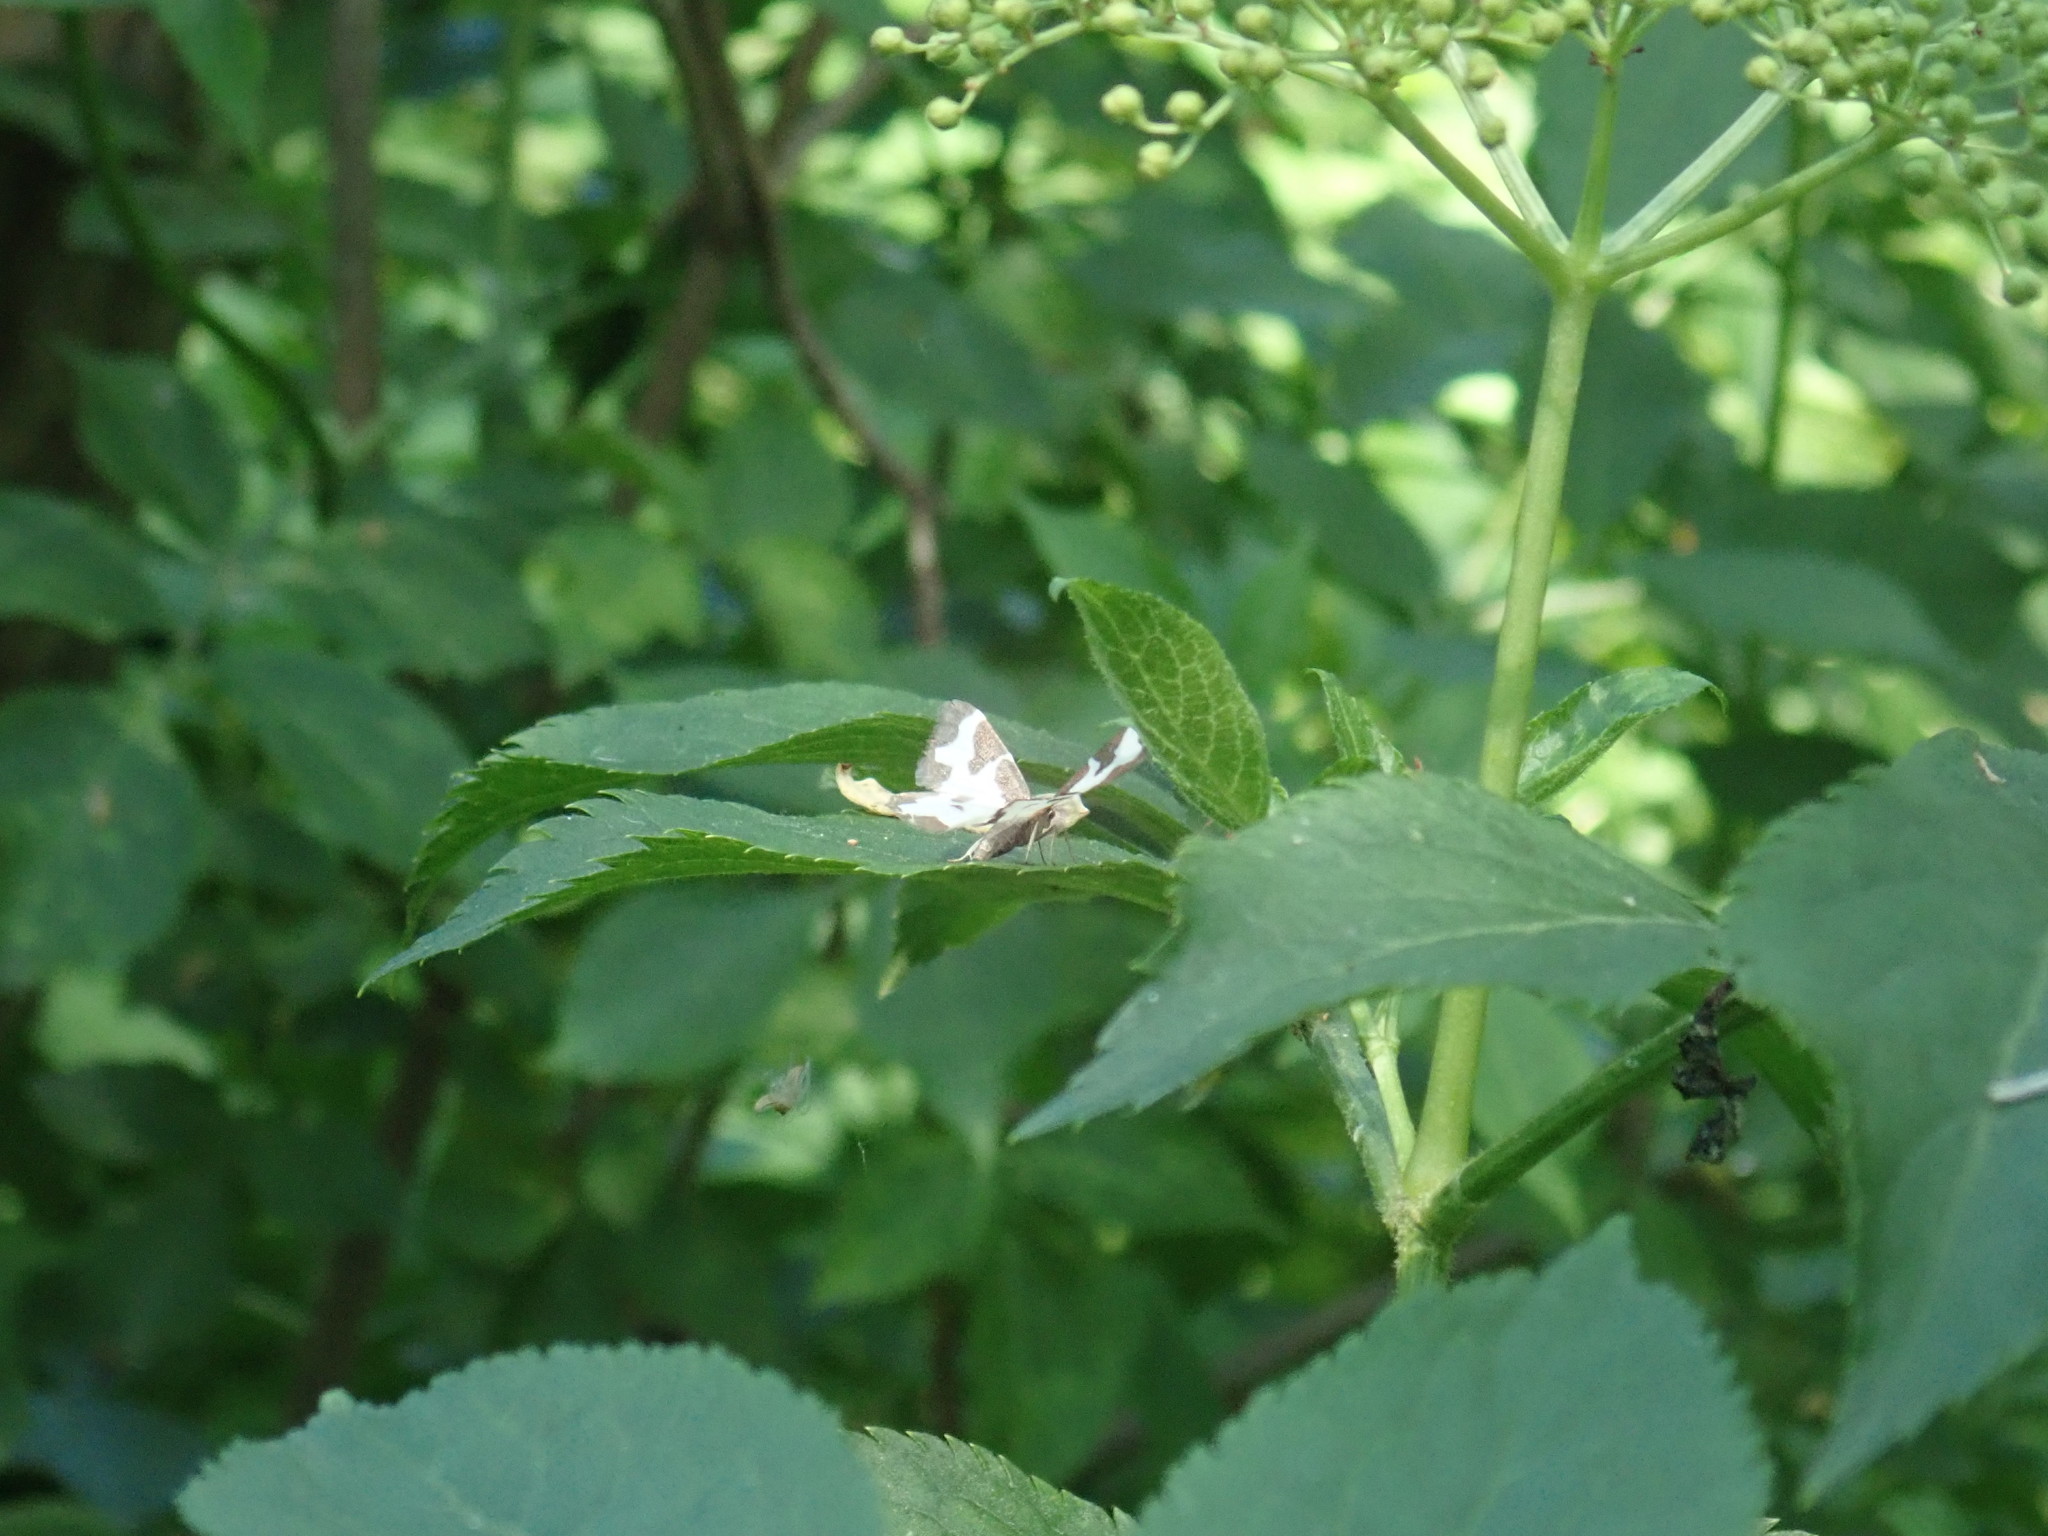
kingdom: Animalia
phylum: Arthropoda
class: Insecta
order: Lepidoptera
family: Geometridae
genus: Lomaspilis
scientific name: Lomaspilis marginata
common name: Clouded border
